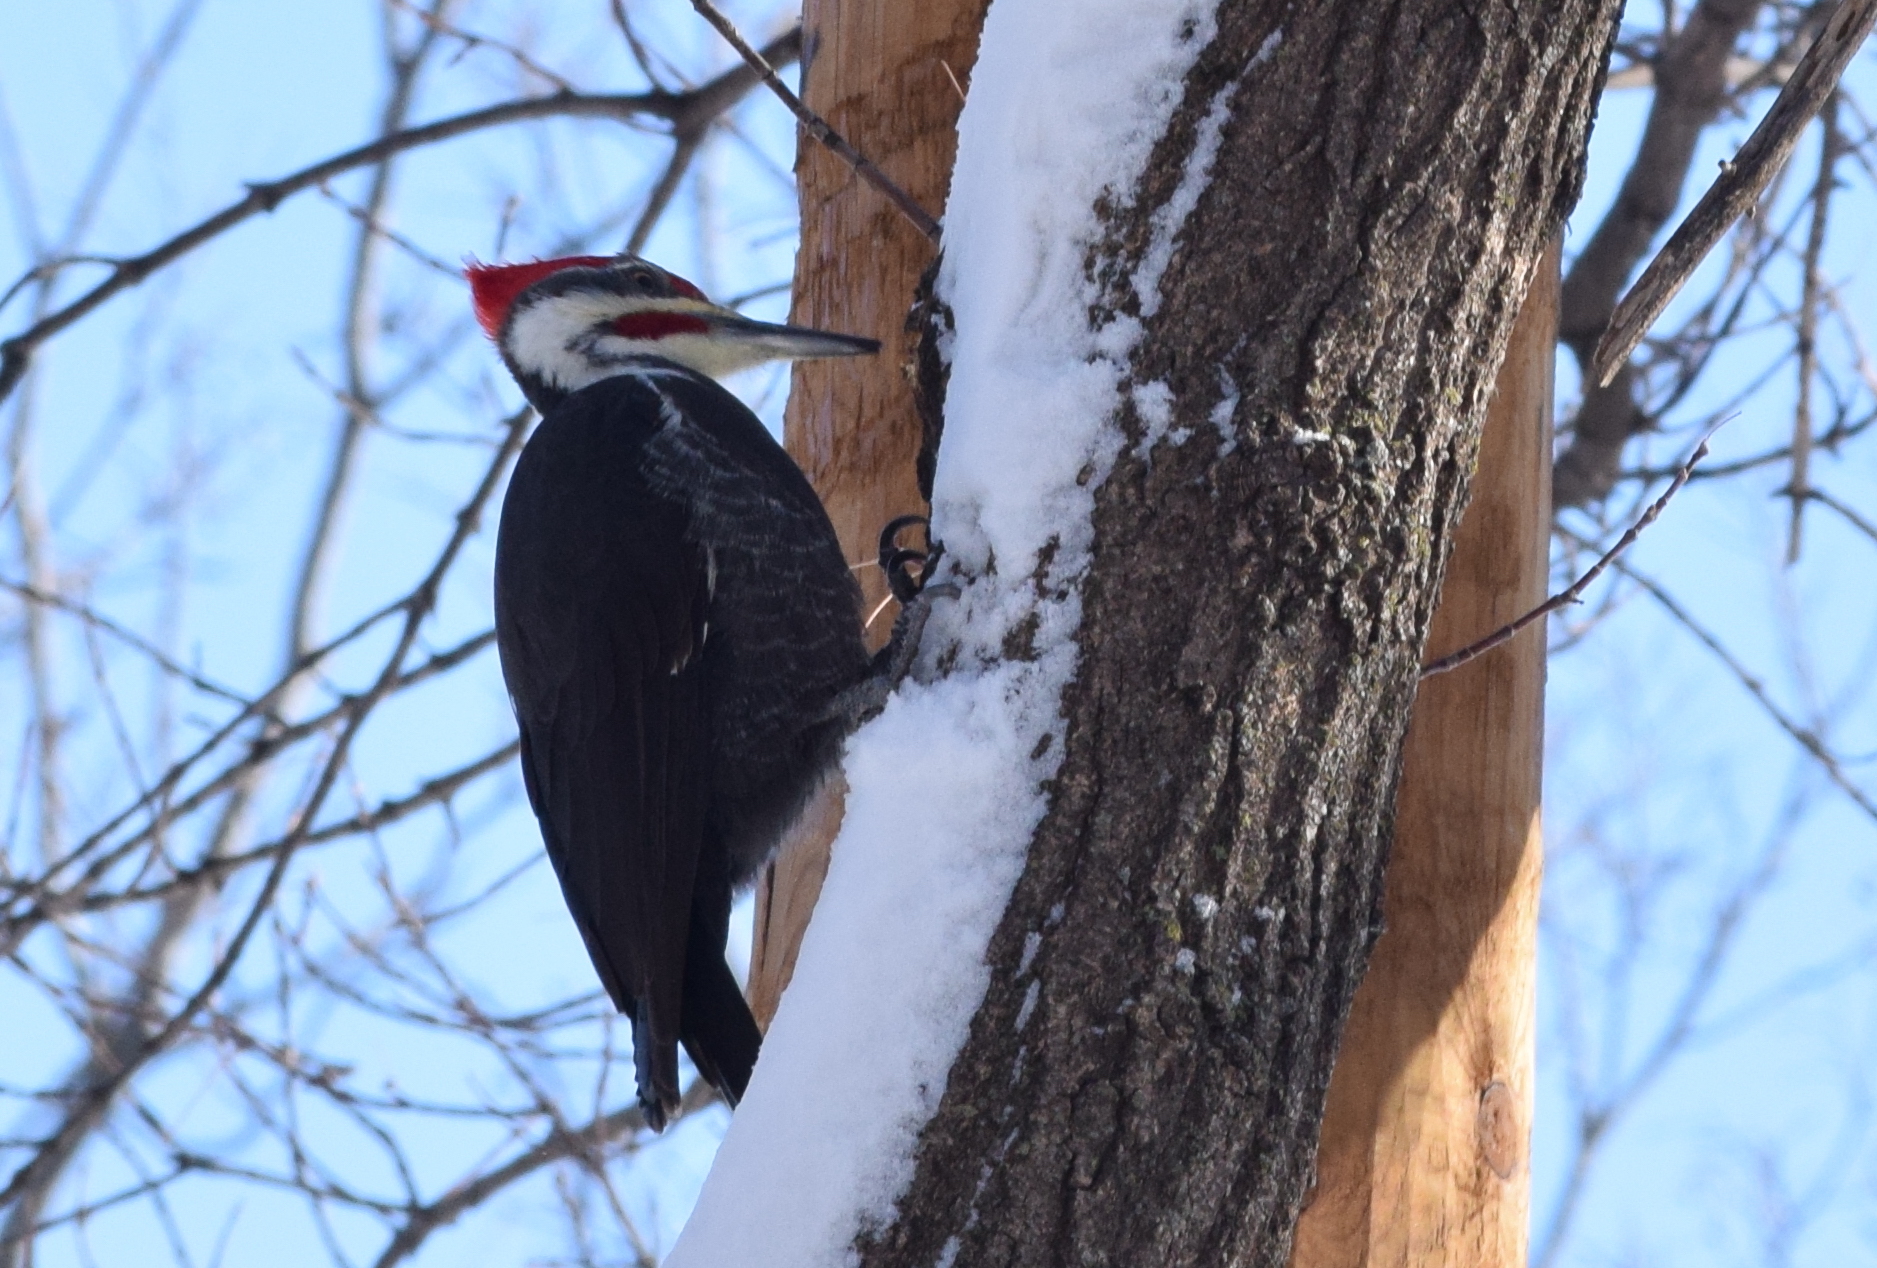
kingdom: Animalia
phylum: Chordata
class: Aves
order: Piciformes
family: Picidae
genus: Dryocopus
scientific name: Dryocopus pileatus
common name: Pileated woodpecker
